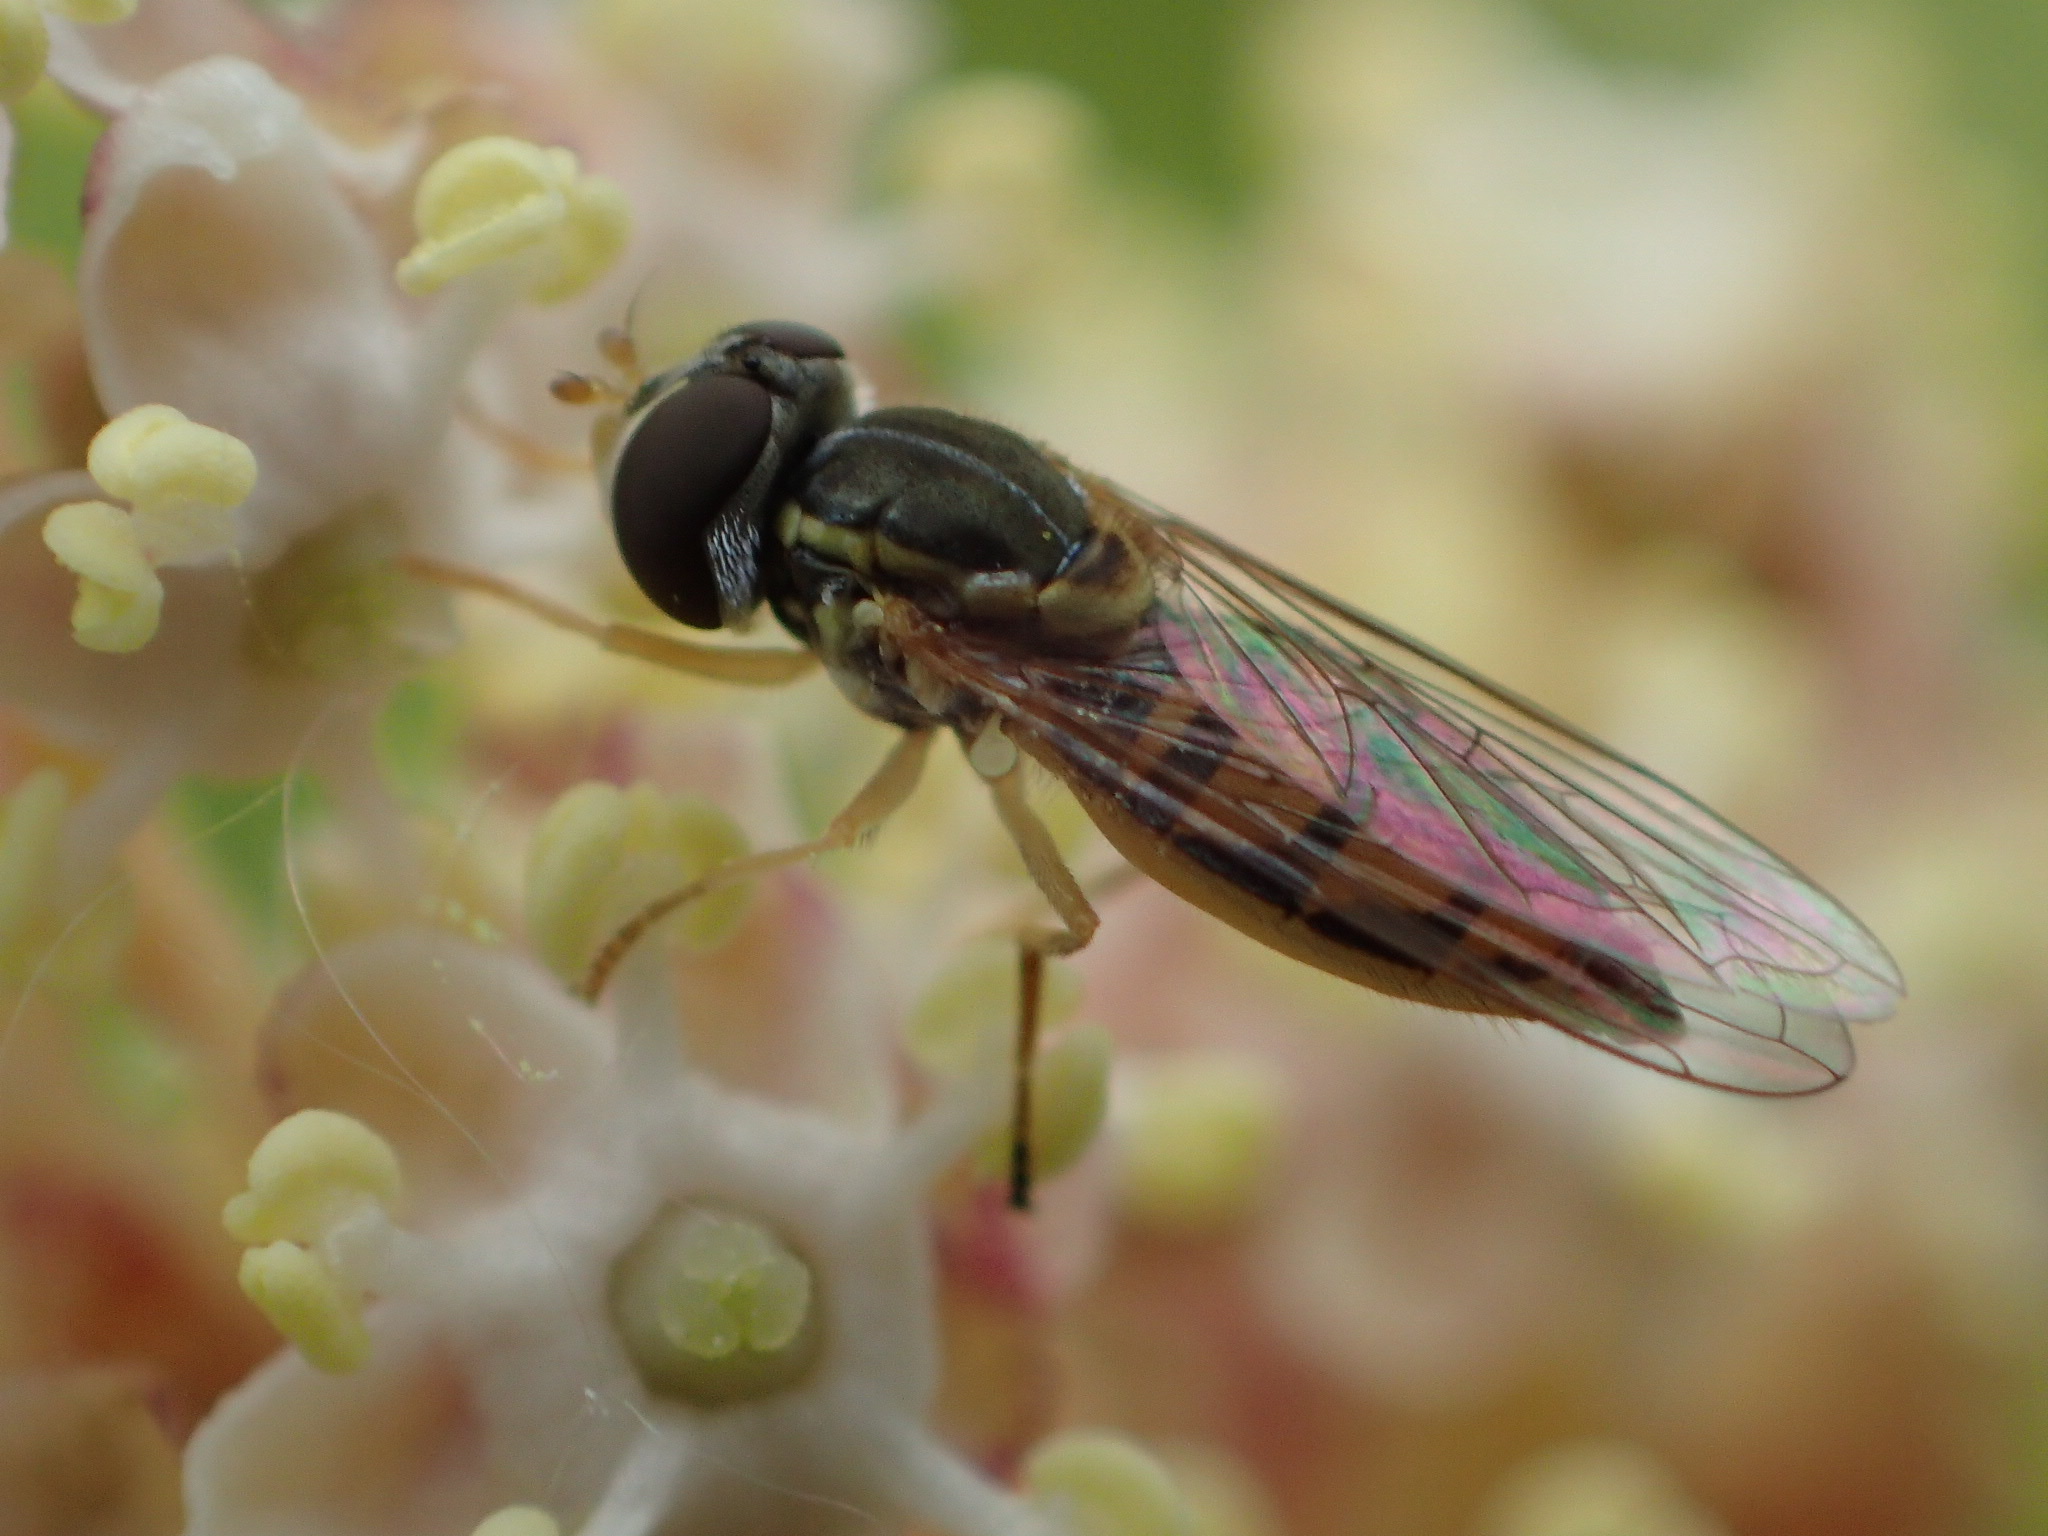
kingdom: Animalia
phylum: Arthropoda
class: Insecta
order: Diptera
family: Syrphidae
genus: Toxomerus
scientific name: Toxomerus marginatus
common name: Syrphid fly
